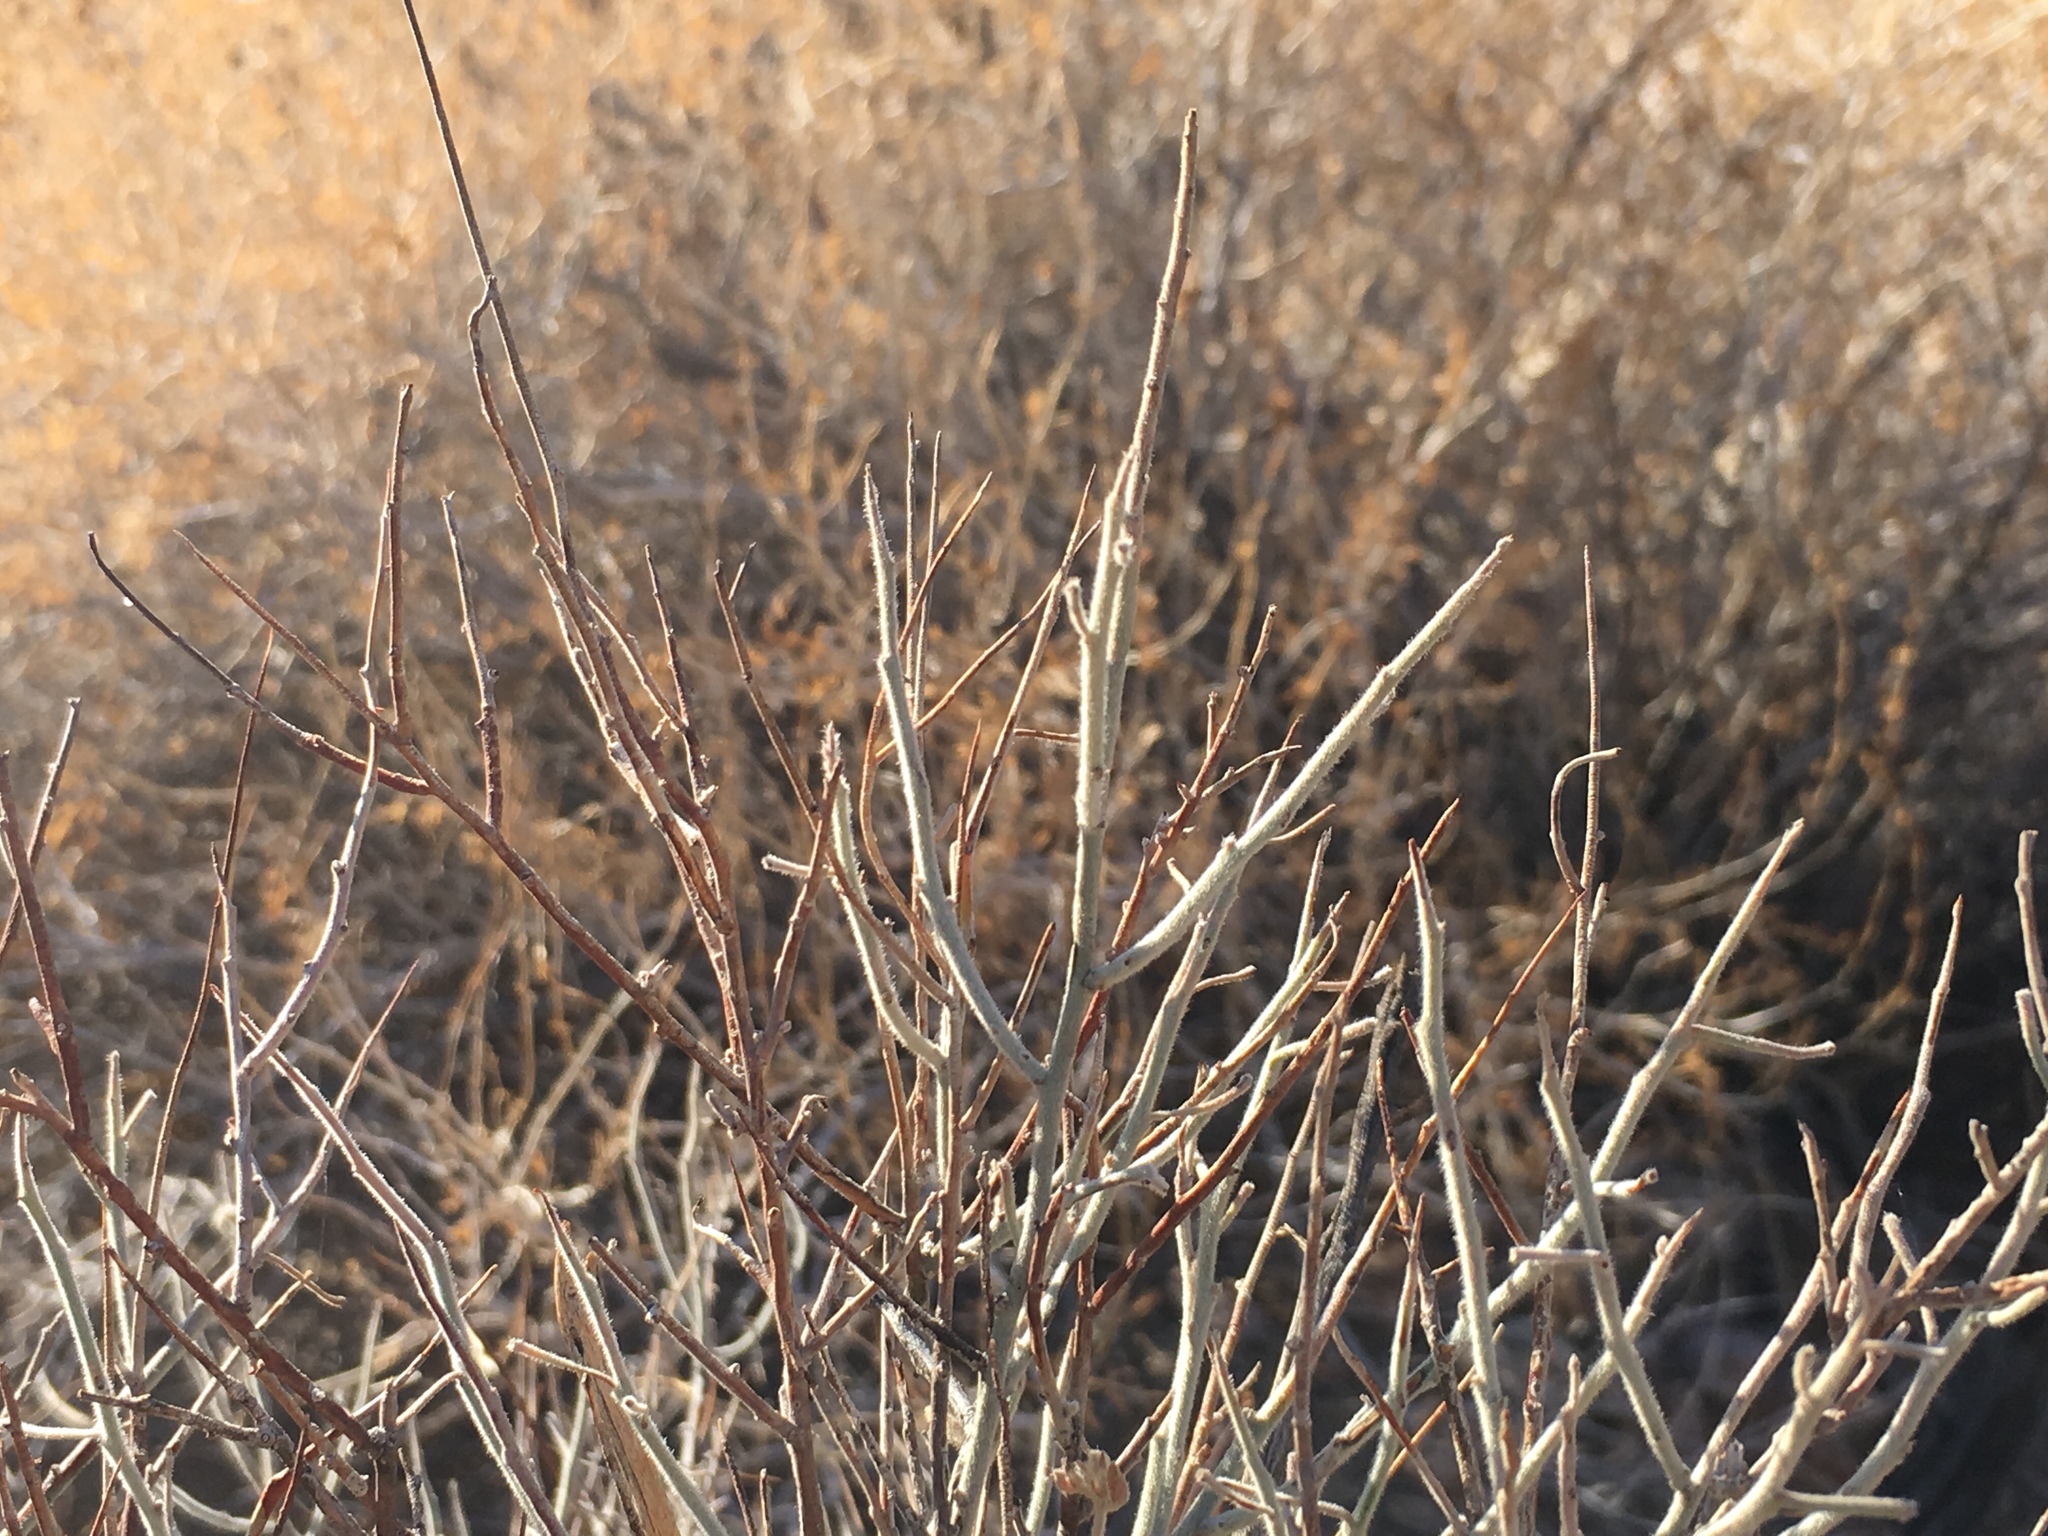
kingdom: Plantae
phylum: Tracheophyta
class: Magnoliopsida
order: Zygophyllales
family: Krameriaceae
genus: Krameria
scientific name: Krameria bicolor
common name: White ratany
